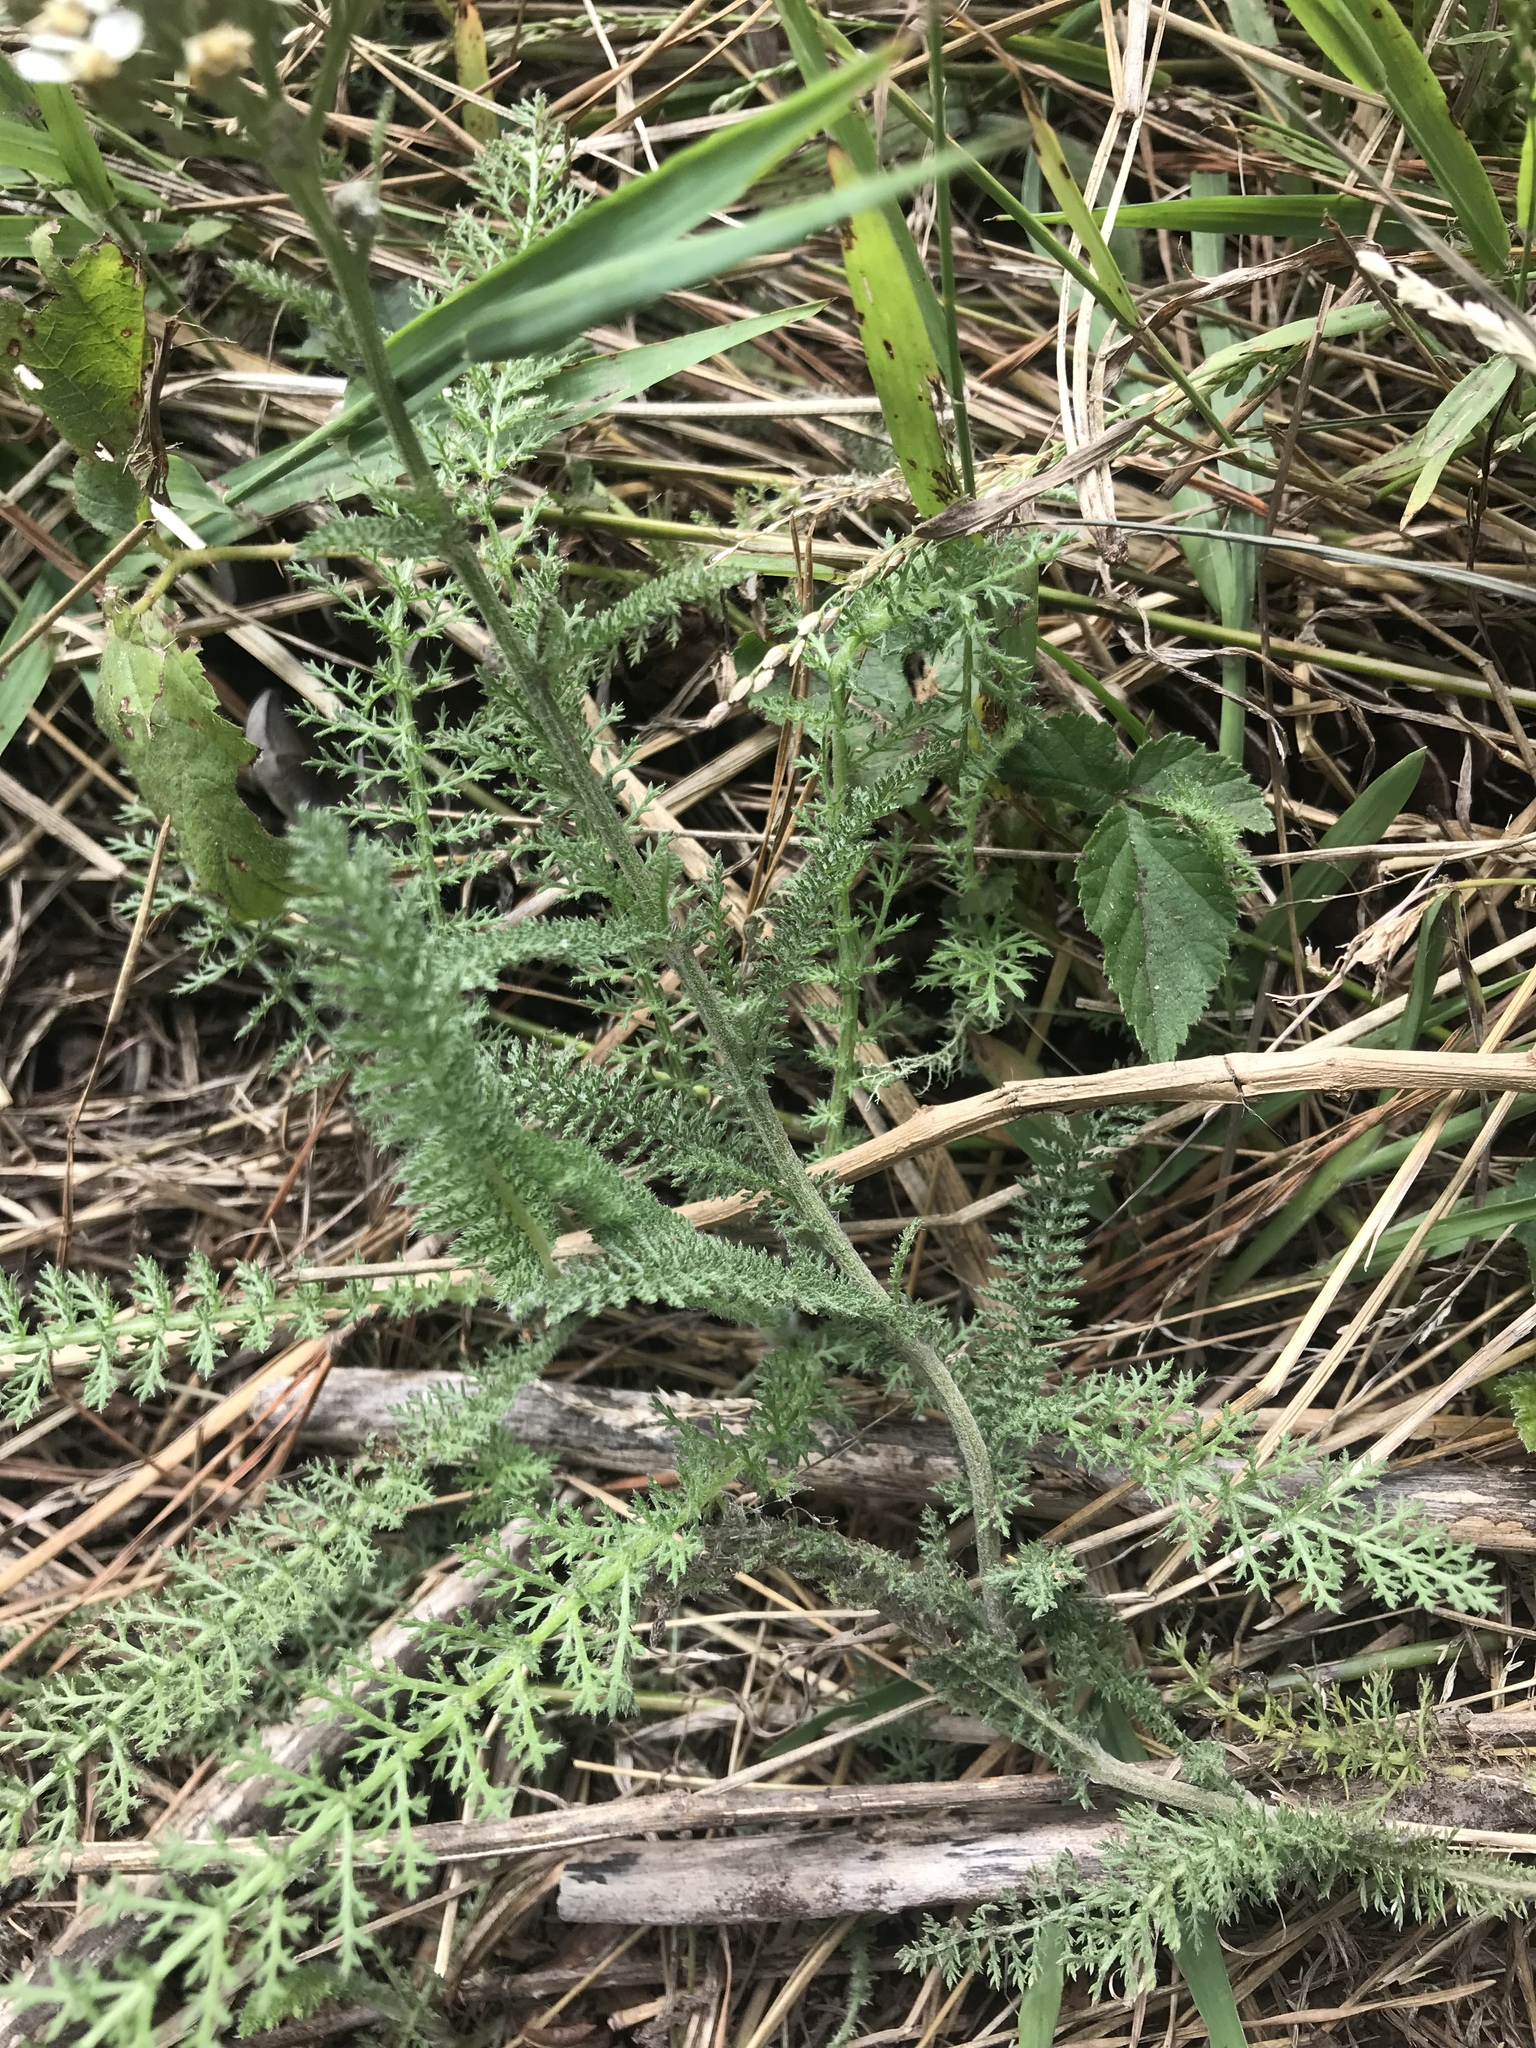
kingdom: Plantae
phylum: Tracheophyta
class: Magnoliopsida
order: Asterales
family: Asteraceae
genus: Achillea
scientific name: Achillea millefolium
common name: Yarrow
